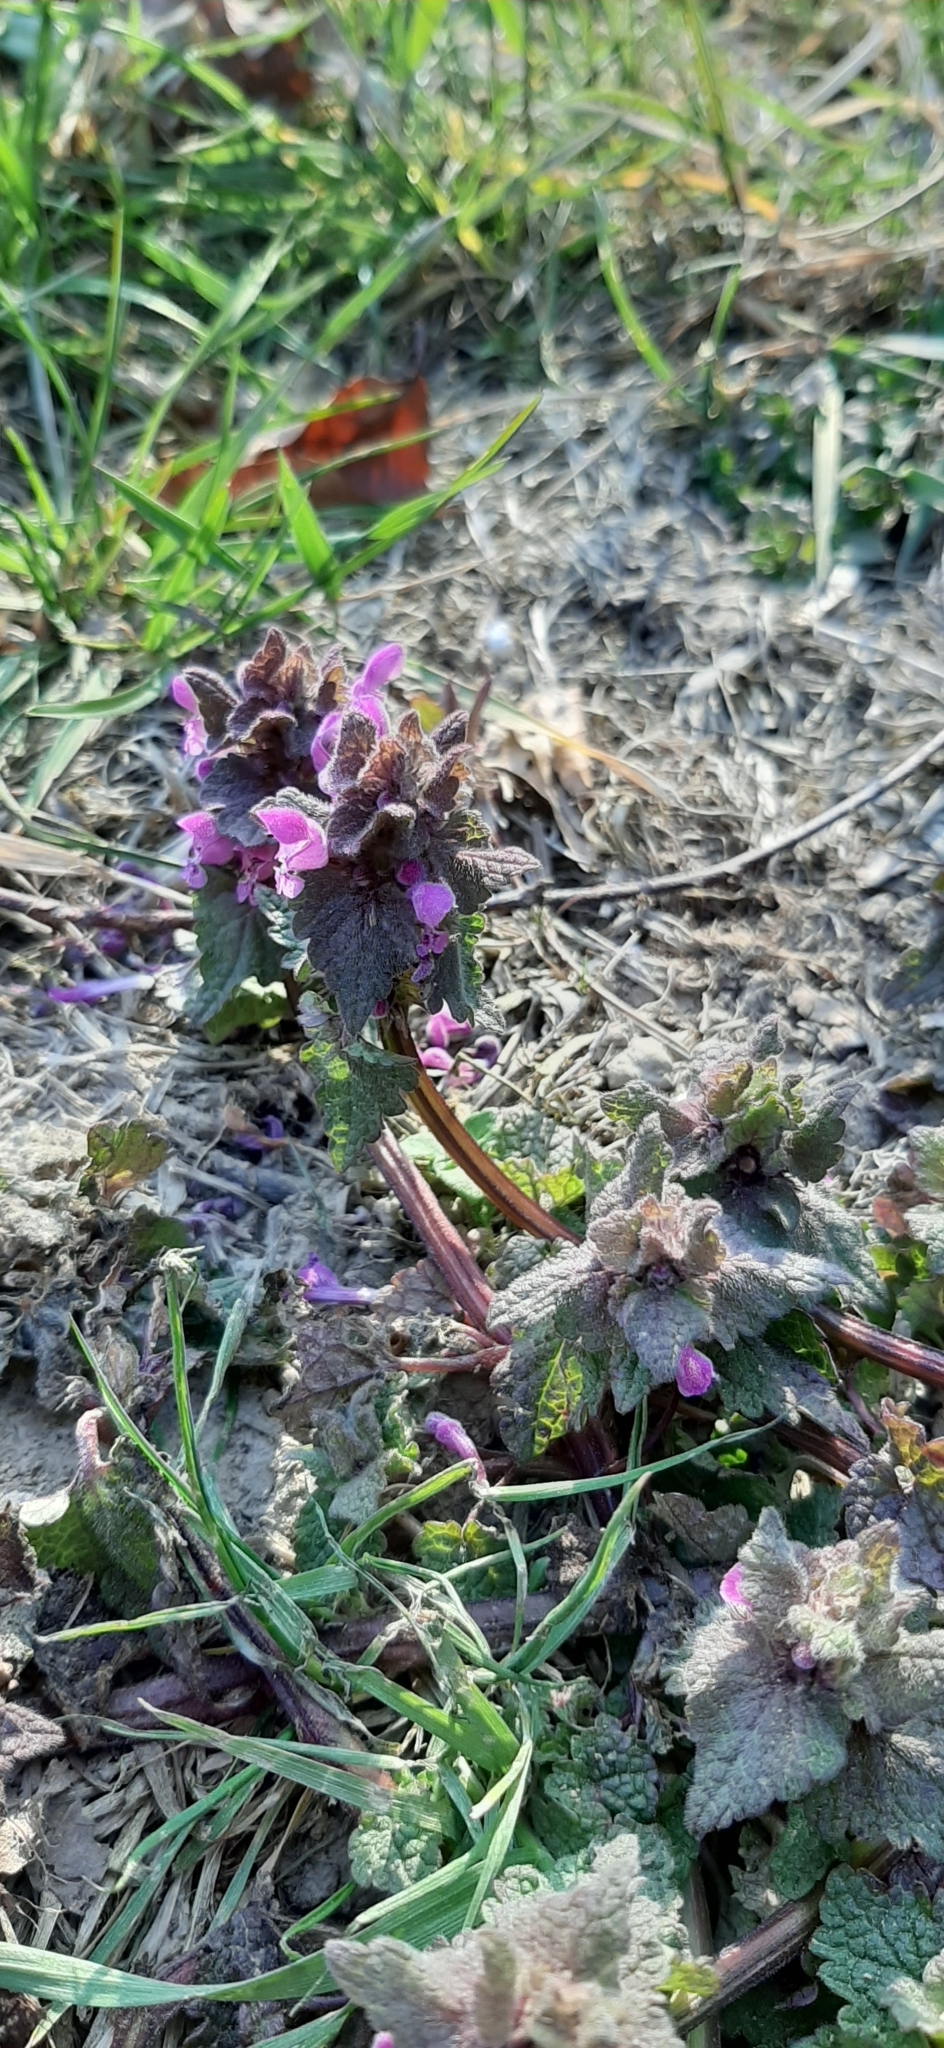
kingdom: Plantae
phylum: Tracheophyta
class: Magnoliopsida
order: Lamiales
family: Lamiaceae
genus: Lamium
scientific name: Lamium purpureum
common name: Red dead-nettle
